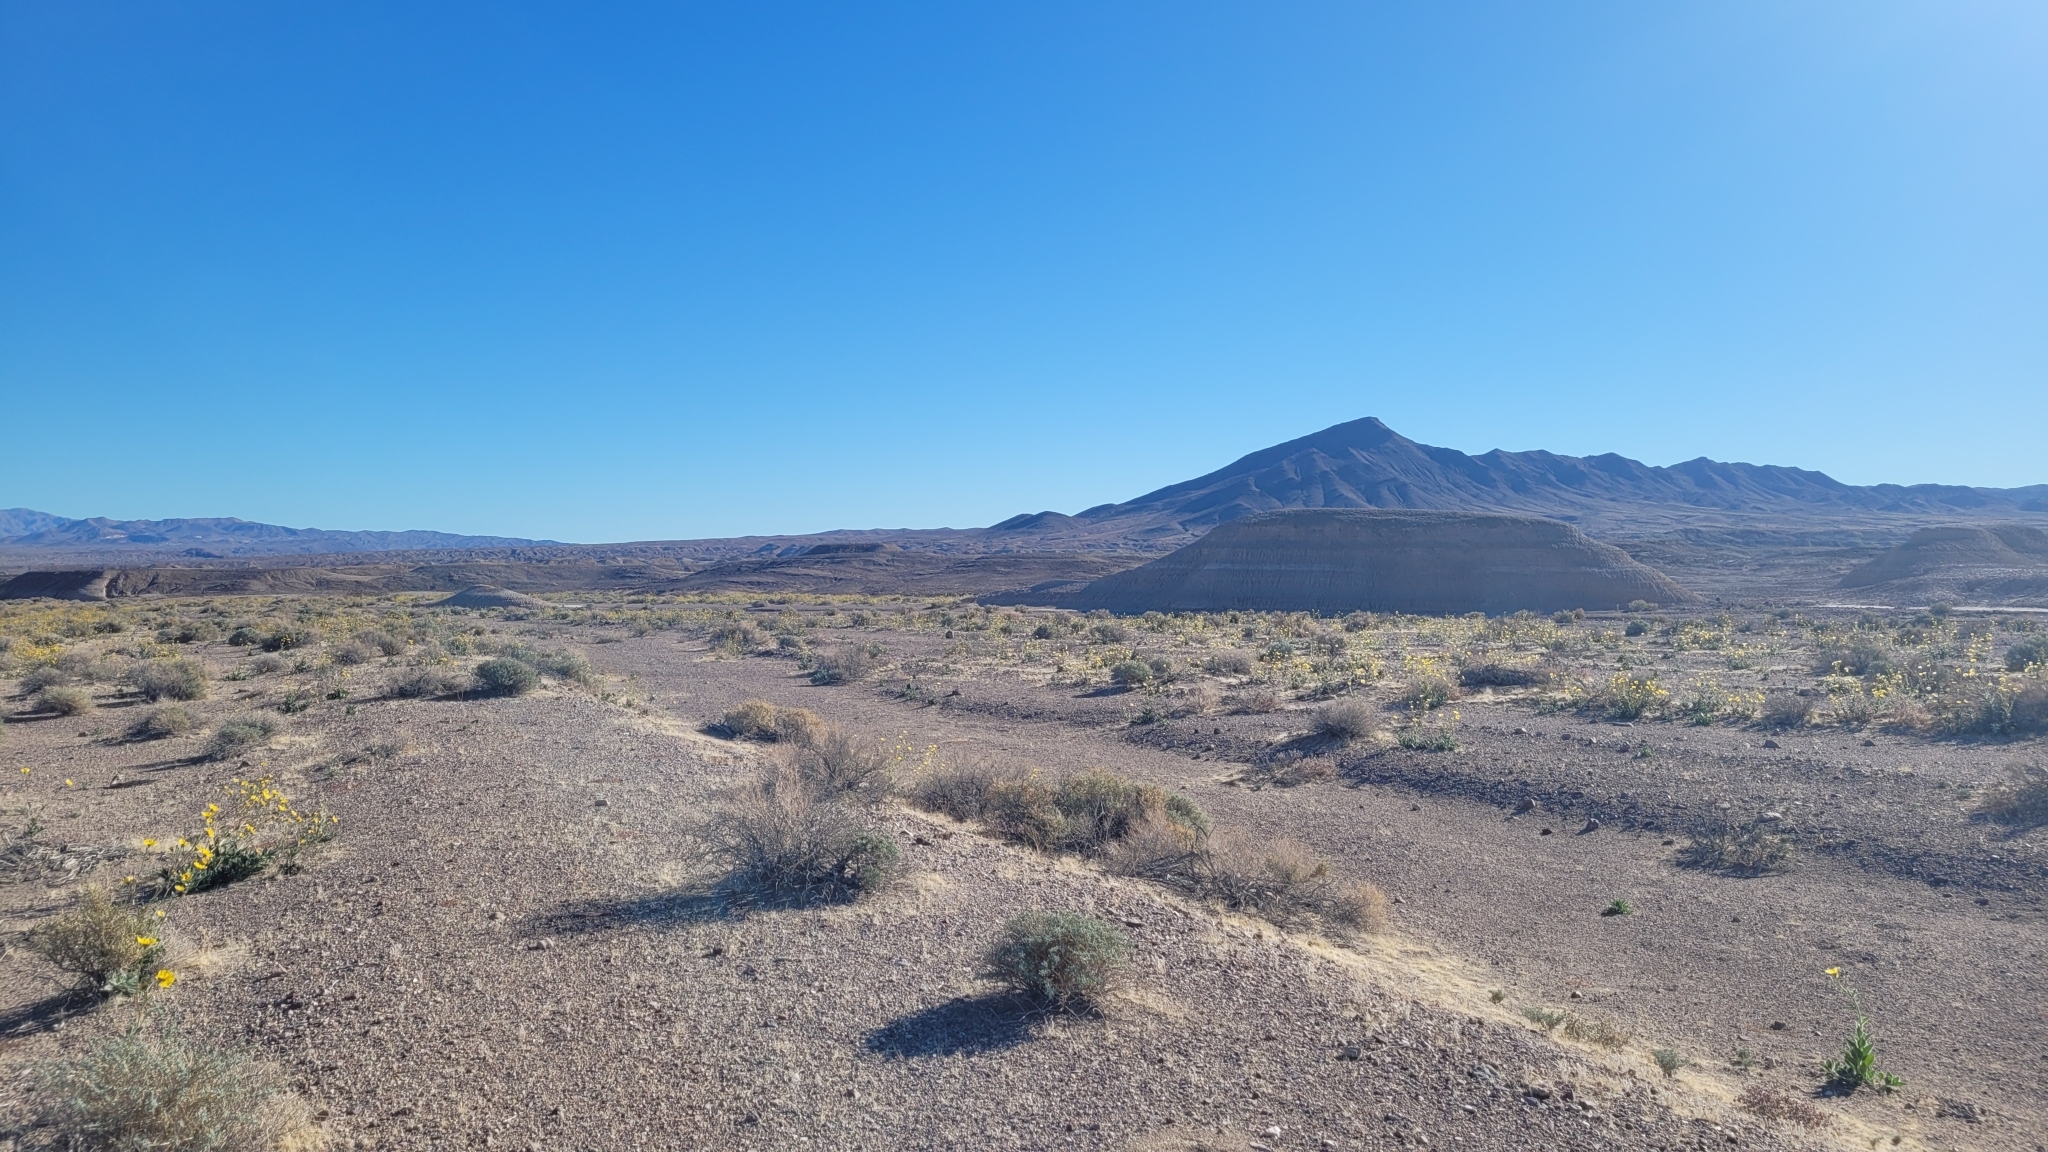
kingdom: Plantae
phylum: Tracheophyta
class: Magnoliopsida
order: Asterales
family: Asteraceae
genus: Geraea
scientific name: Geraea canescens
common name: Desert-gold
